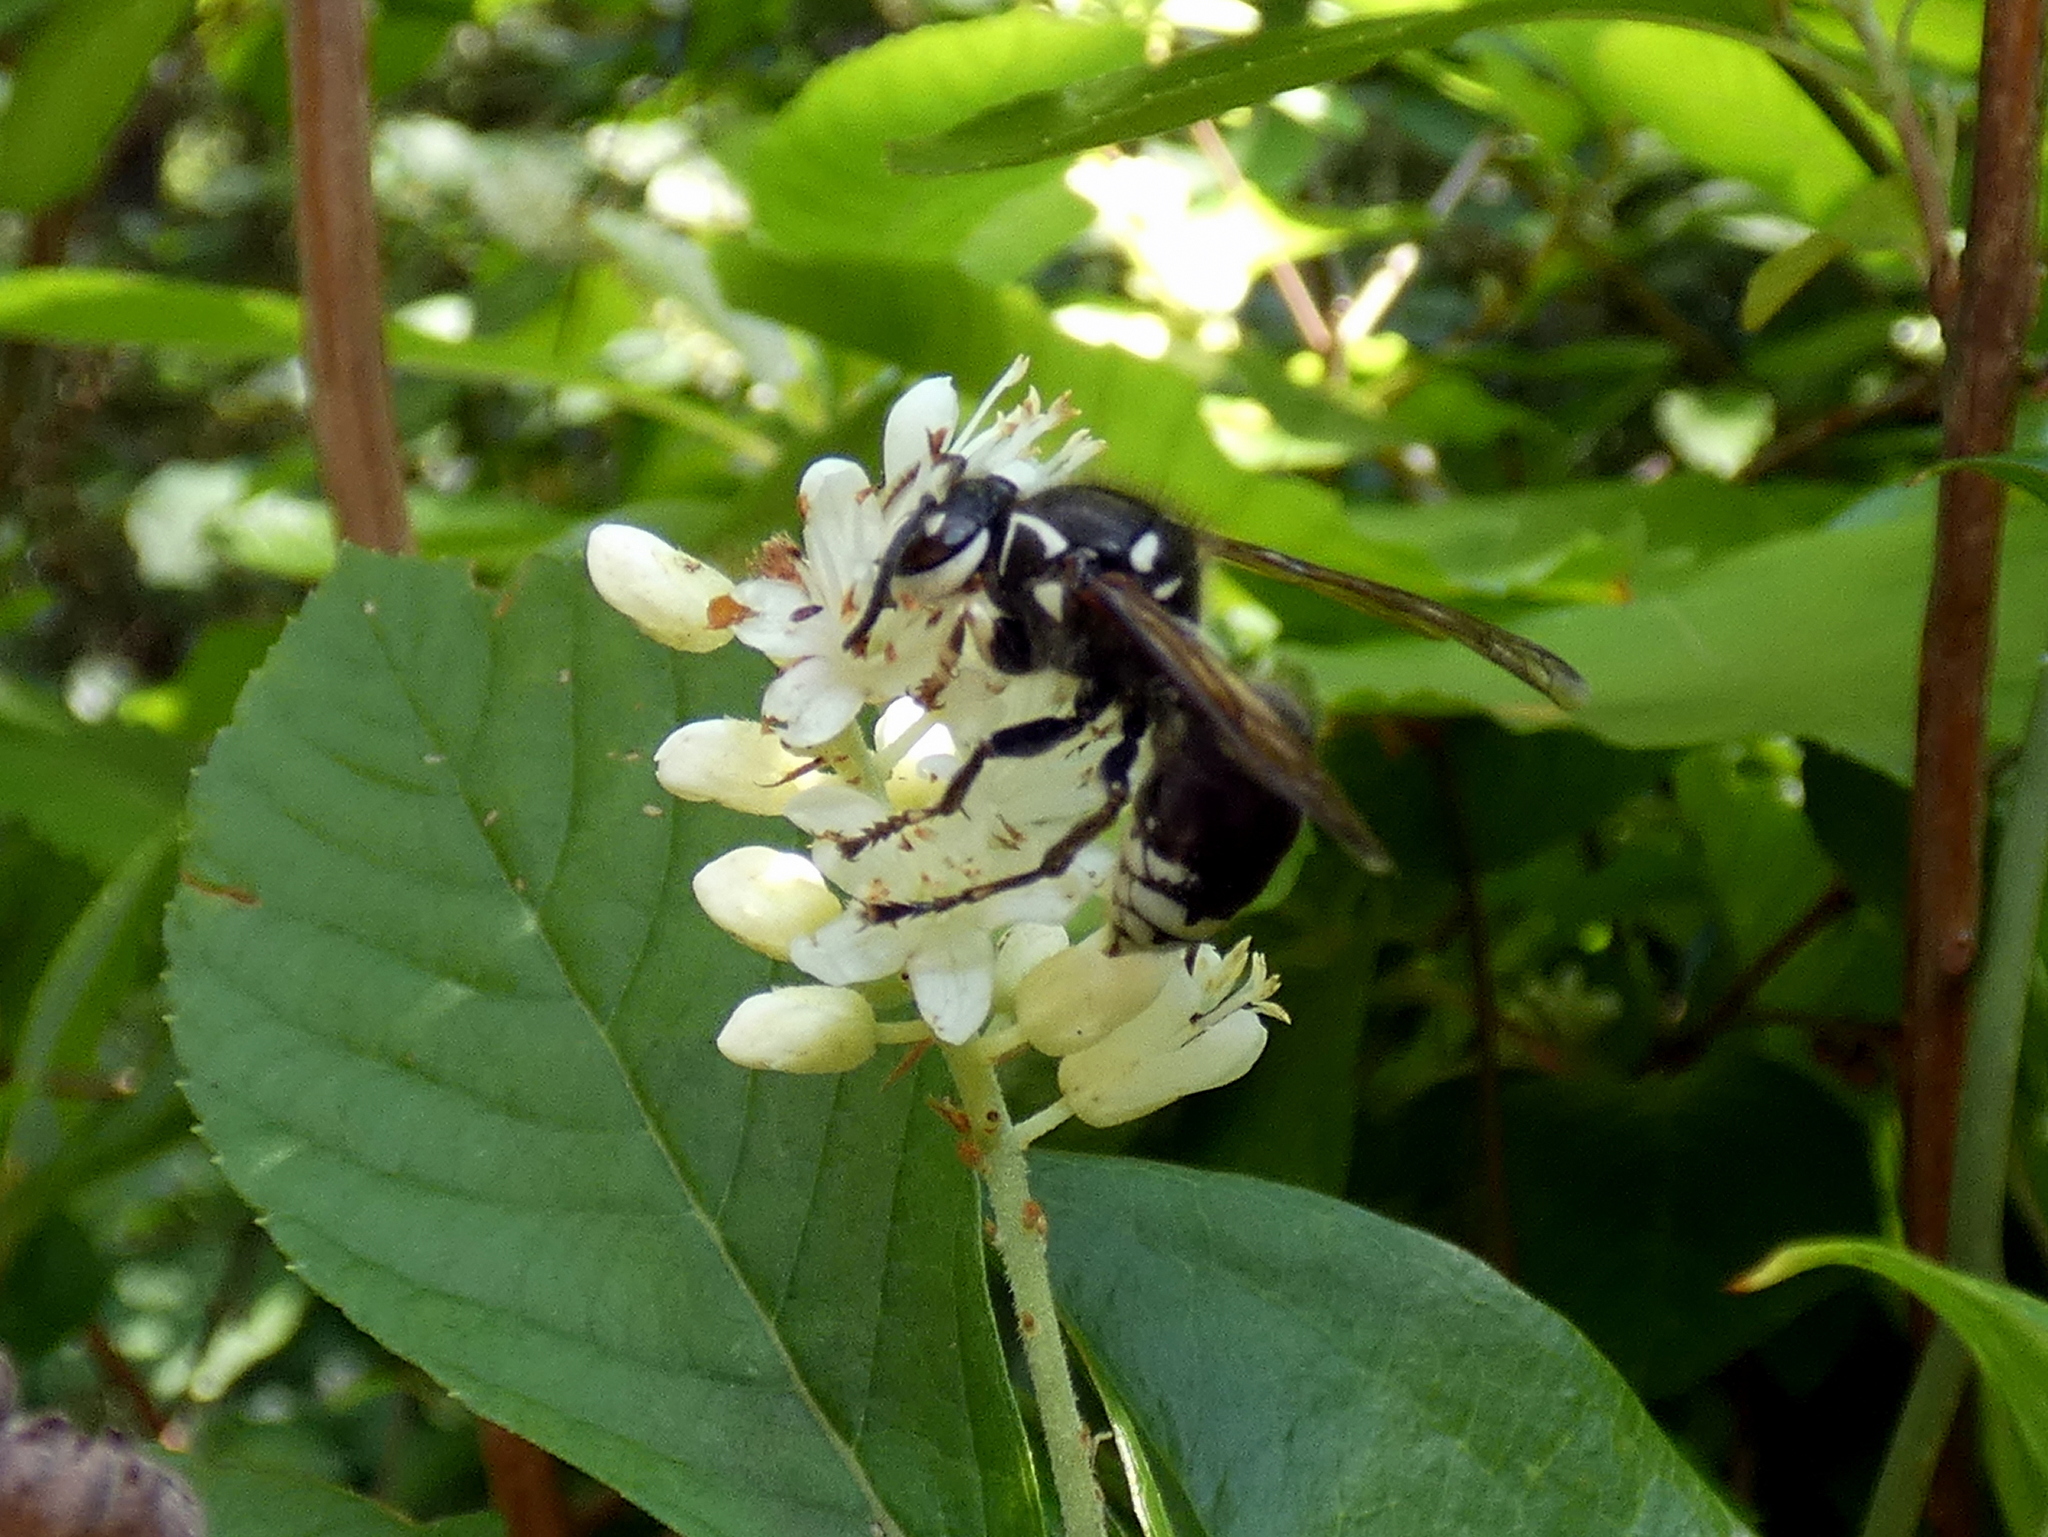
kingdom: Animalia
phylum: Arthropoda
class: Insecta
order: Hymenoptera
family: Vespidae
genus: Dolichovespula
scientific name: Dolichovespula maculata
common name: Bald-faced hornet
